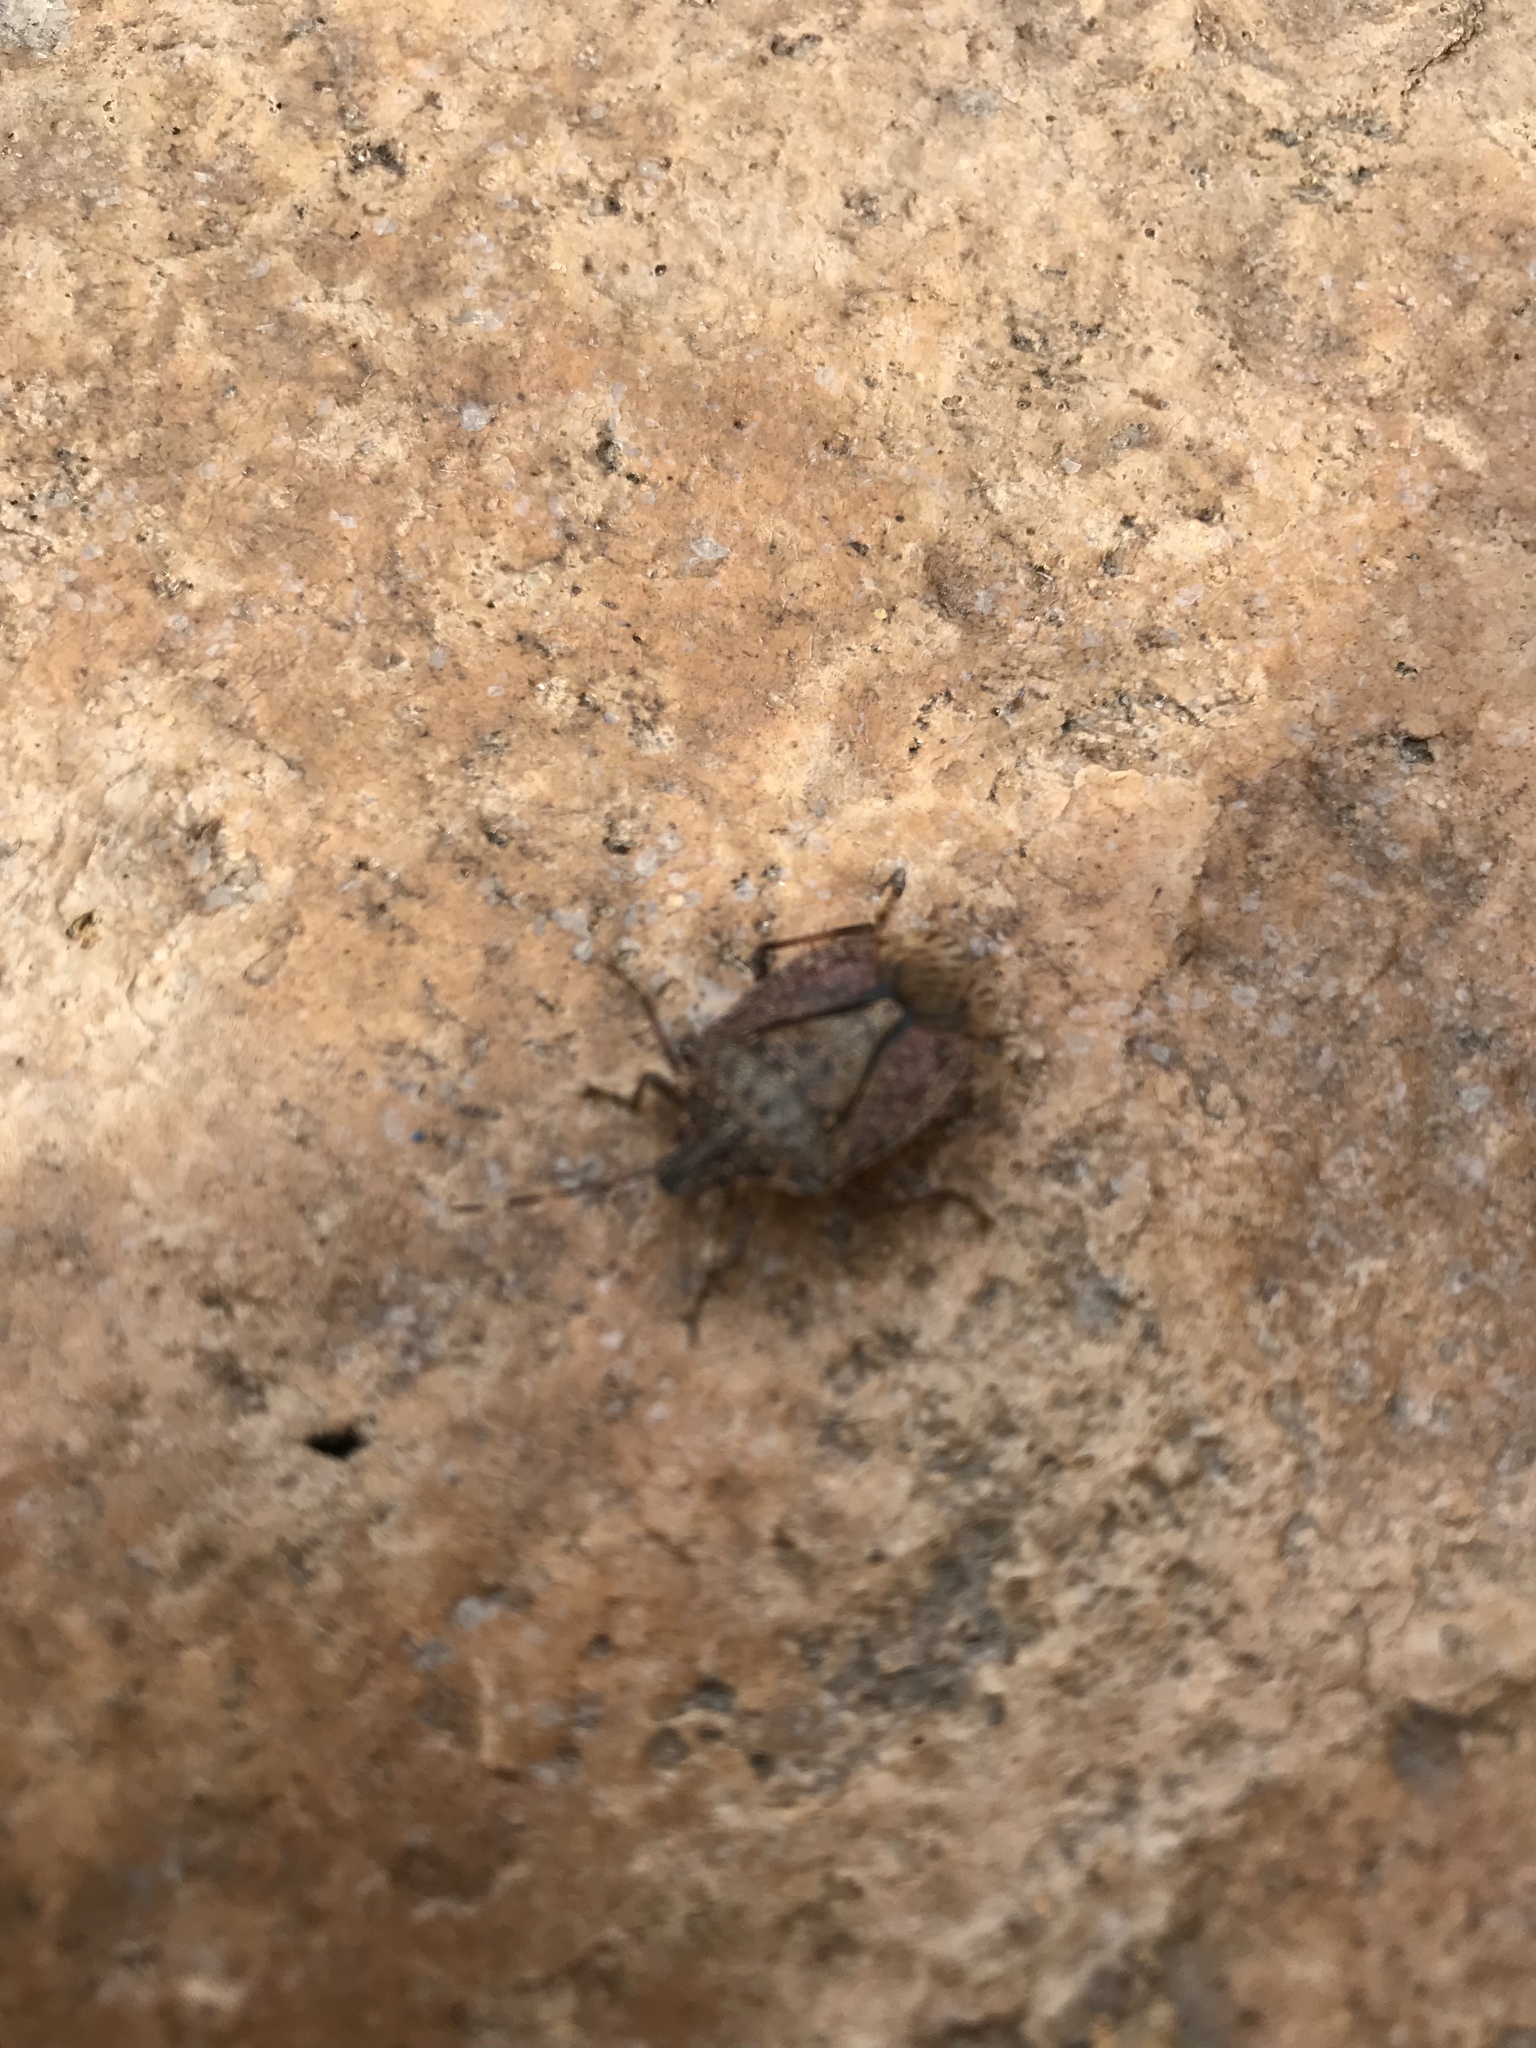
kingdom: Animalia
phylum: Arthropoda
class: Insecta
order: Hemiptera
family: Pentatomidae
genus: Halyomorpha
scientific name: Halyomorpha halys
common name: Brown marmorated stink bug
